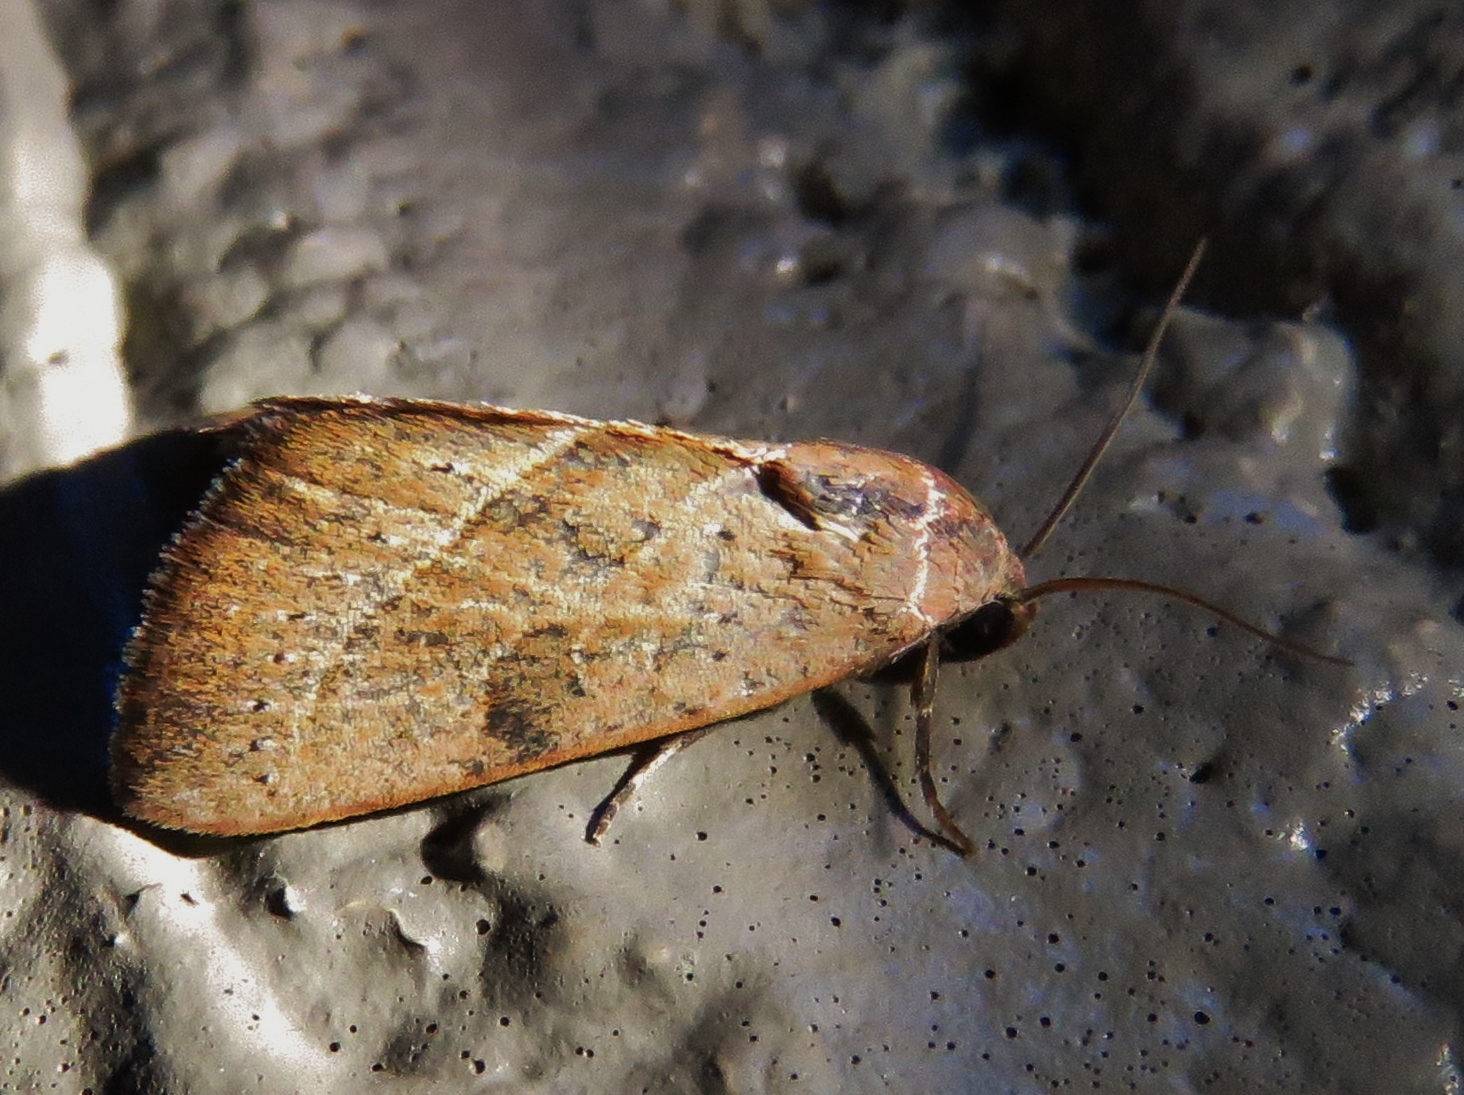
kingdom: Animalia
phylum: Arthropoda
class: Insecta
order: Lepidoptera
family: Noctuidae
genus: Galgula
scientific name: Galgula partita
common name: Wedgeling
